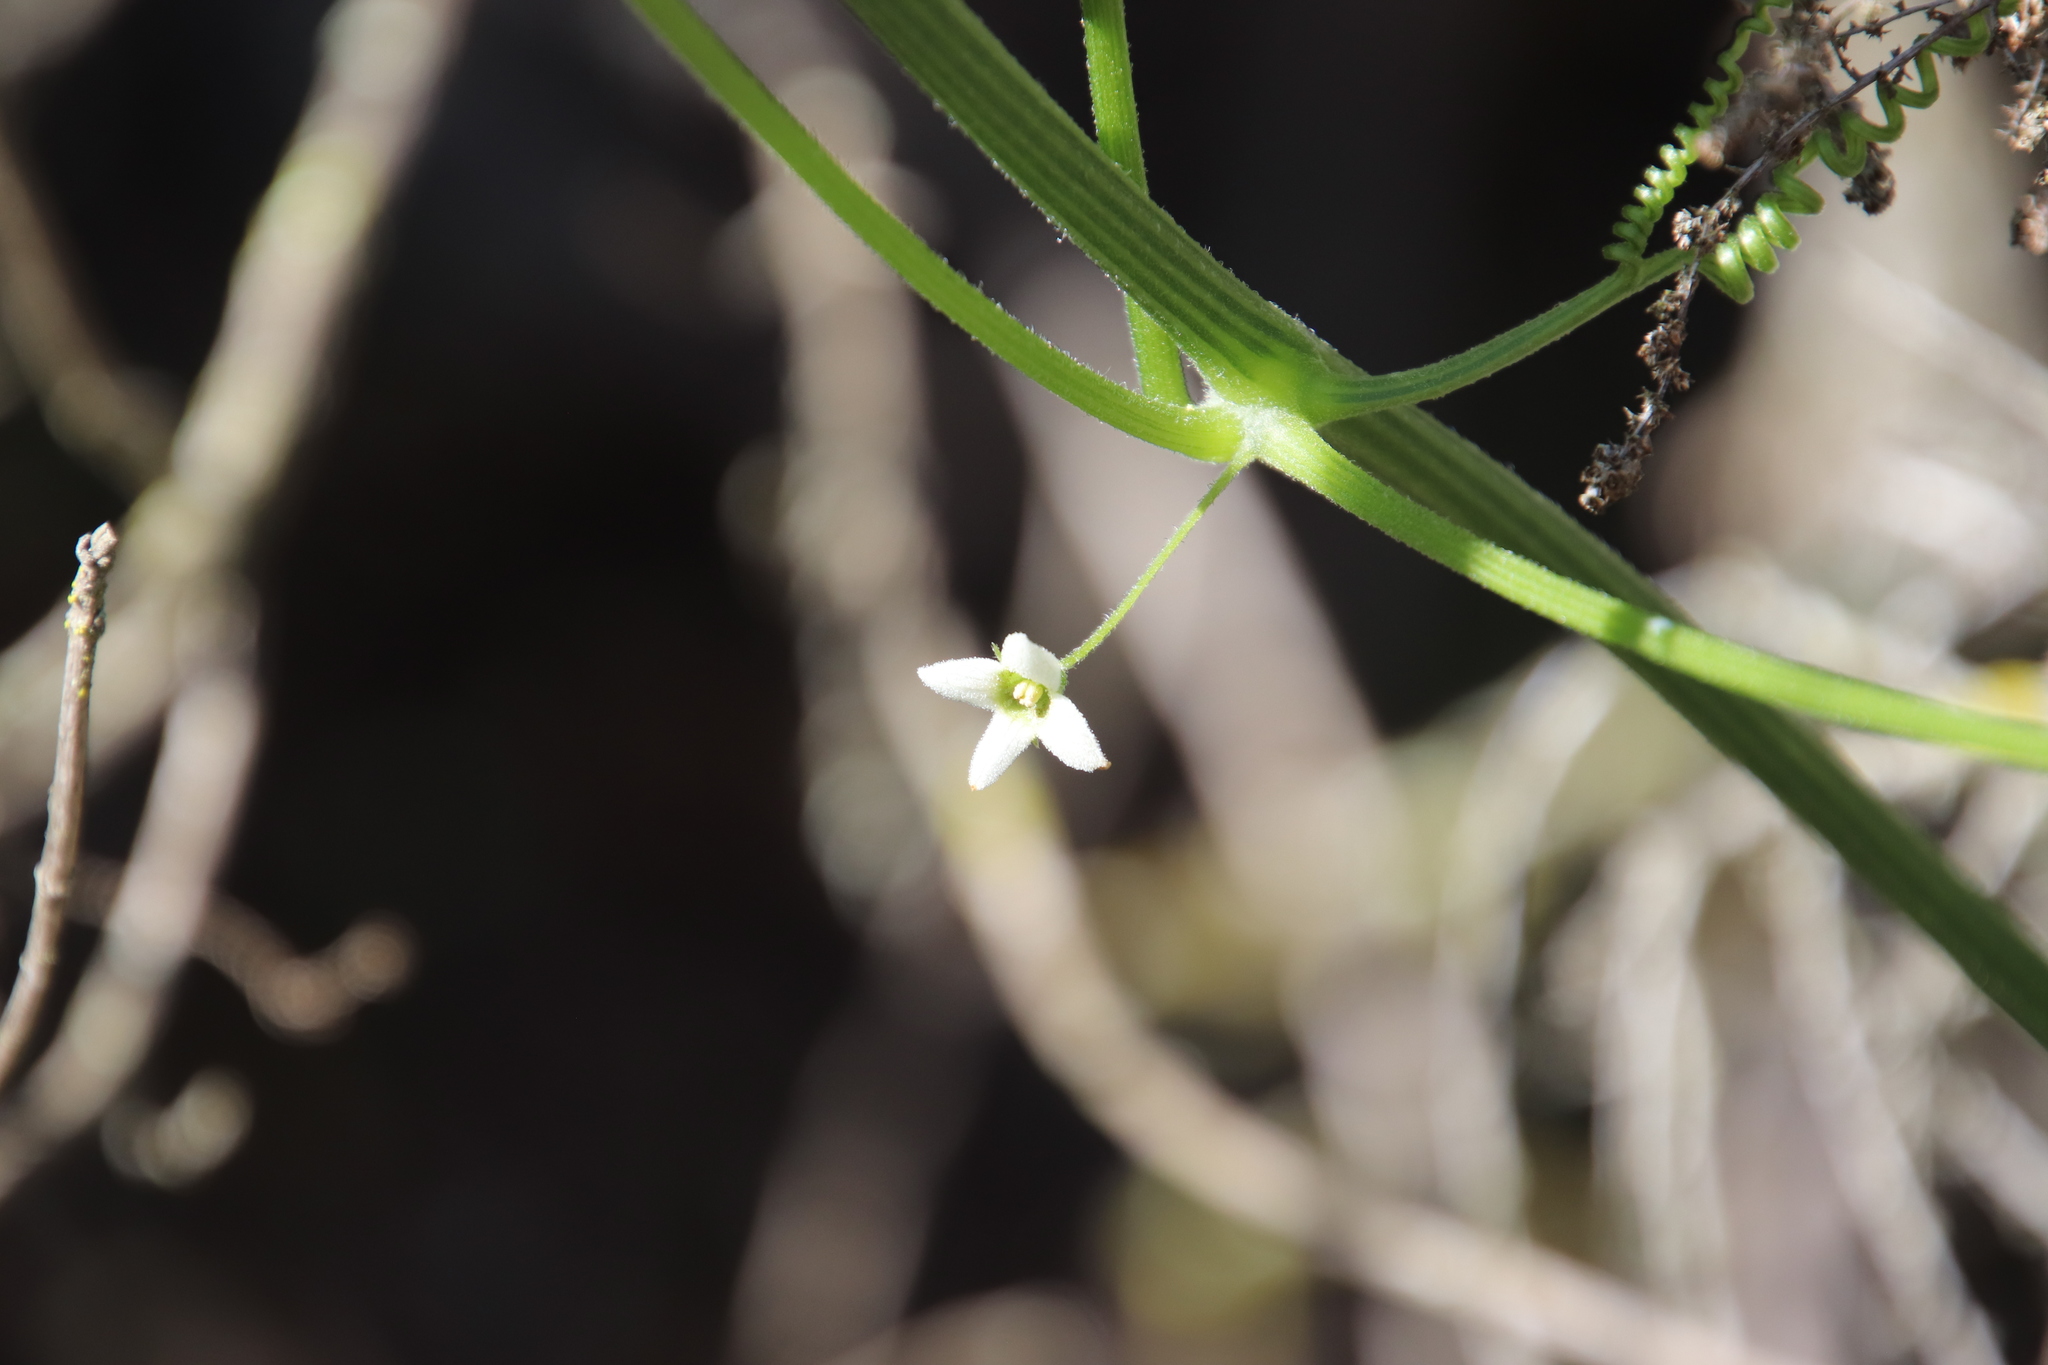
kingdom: Plantae
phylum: Tracheophyta
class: Magnoliopsida
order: Cucurbitales
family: Cucurbitaceae
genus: Marah
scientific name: Marah macrocarpa
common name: Cucamonga manroot
